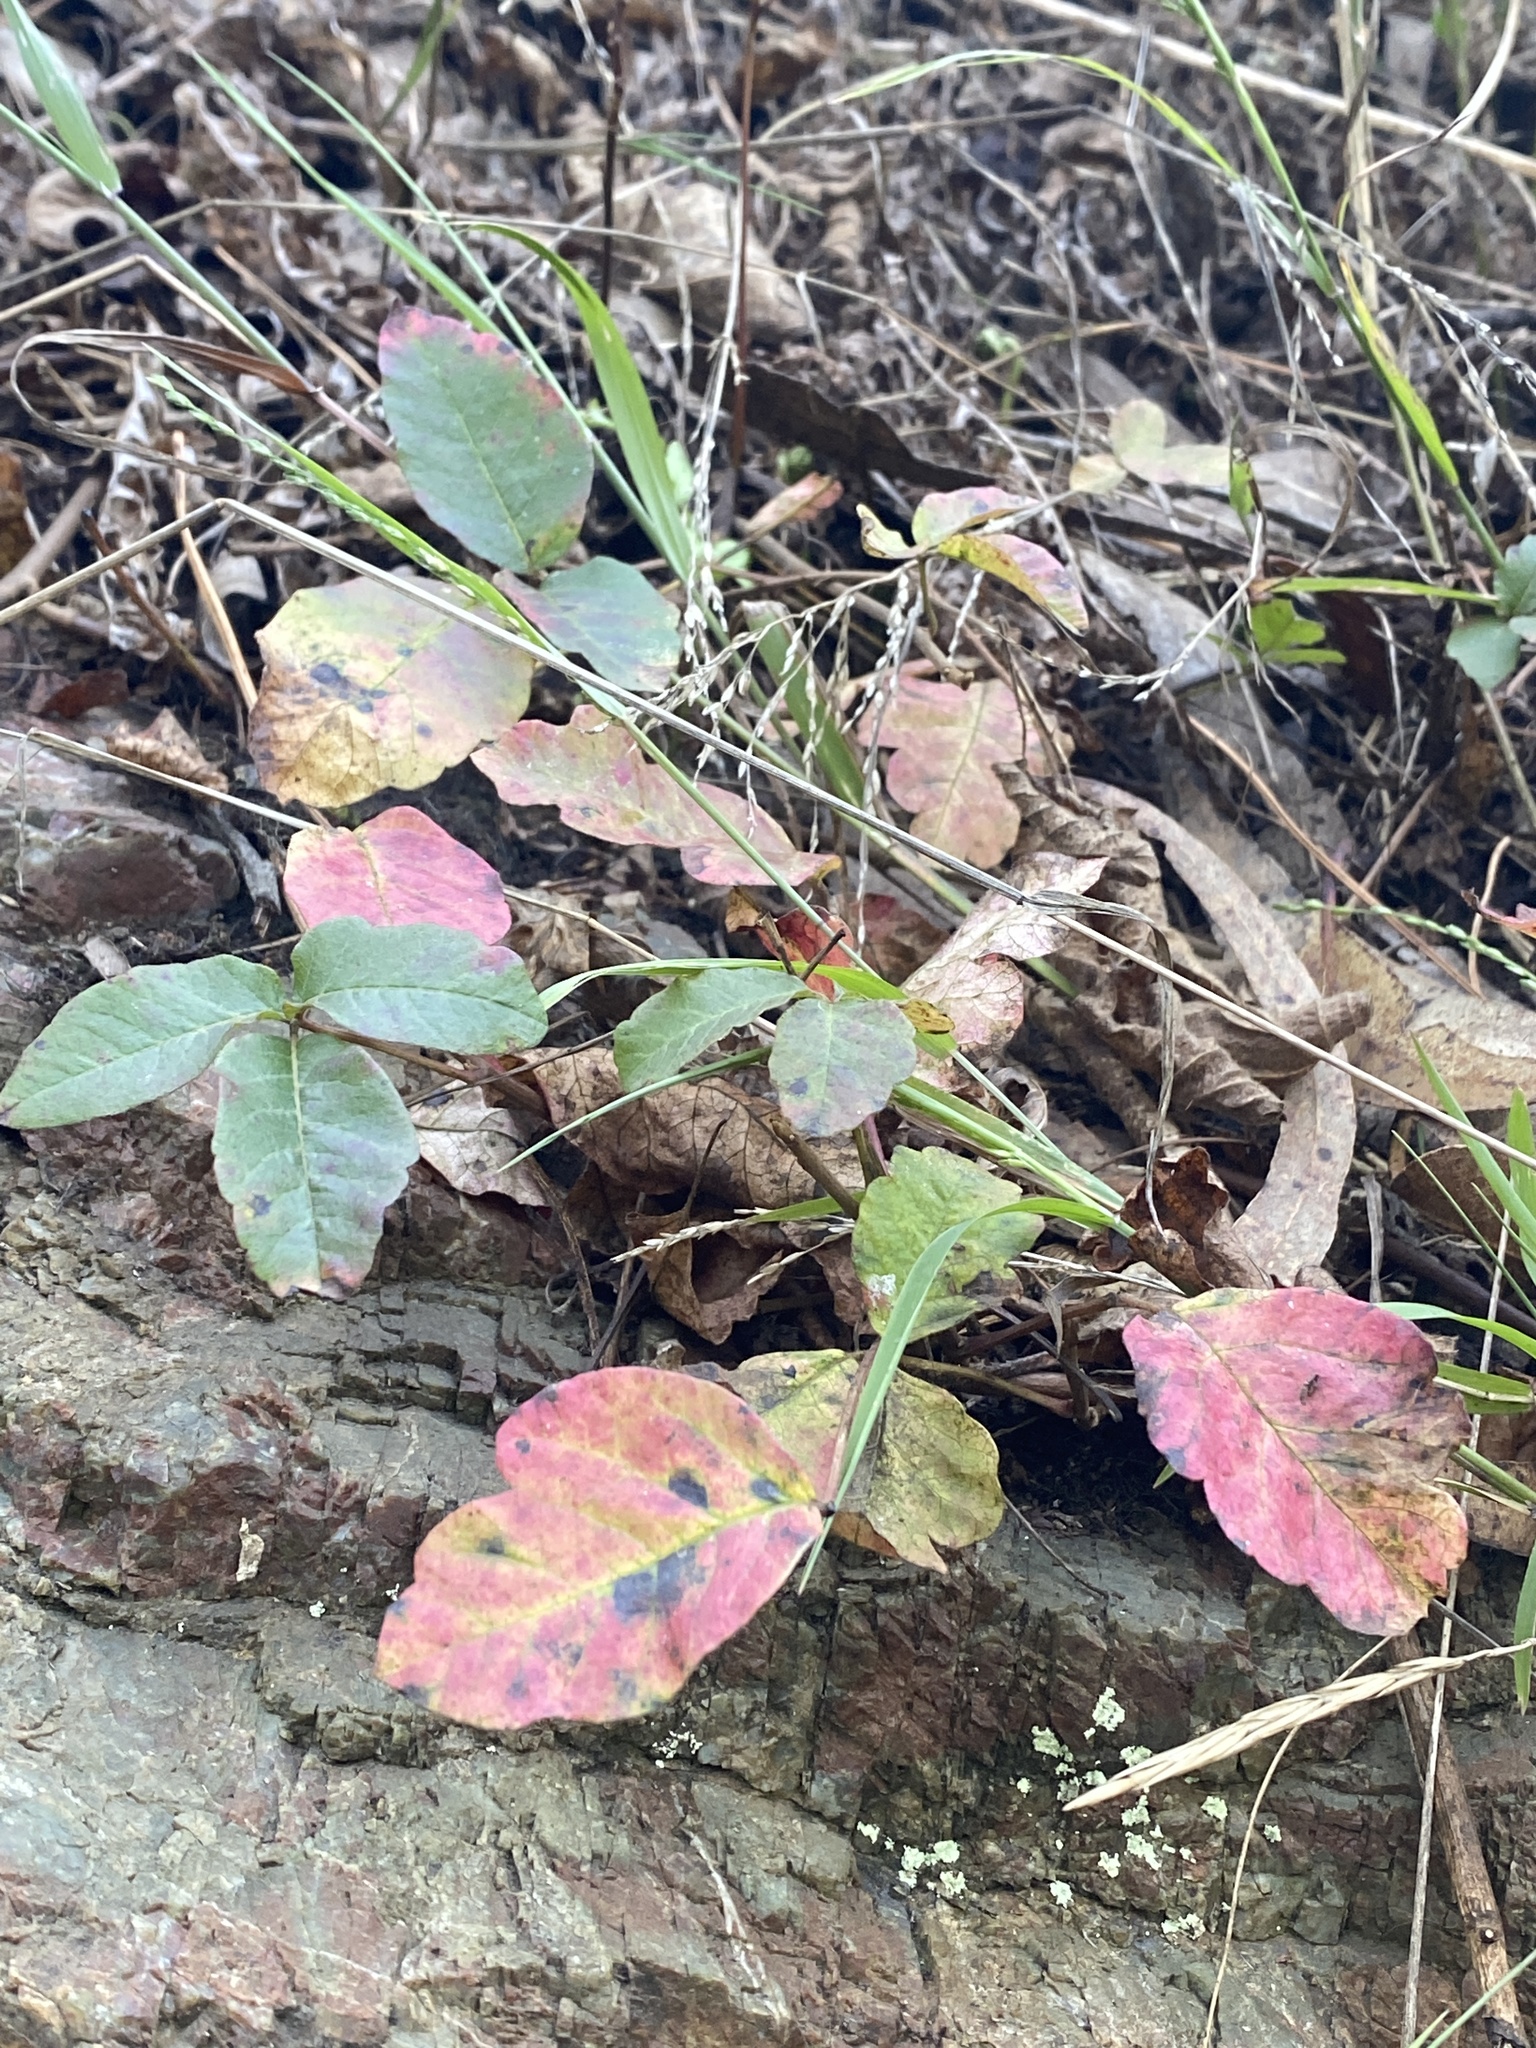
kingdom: Plantae
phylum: Tracheophyta
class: Magnoliopsida
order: Sapindales
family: Anacardiaceae
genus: Toxicodendron
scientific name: Toxicodendron diversilobum
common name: Pacific poison-oak
